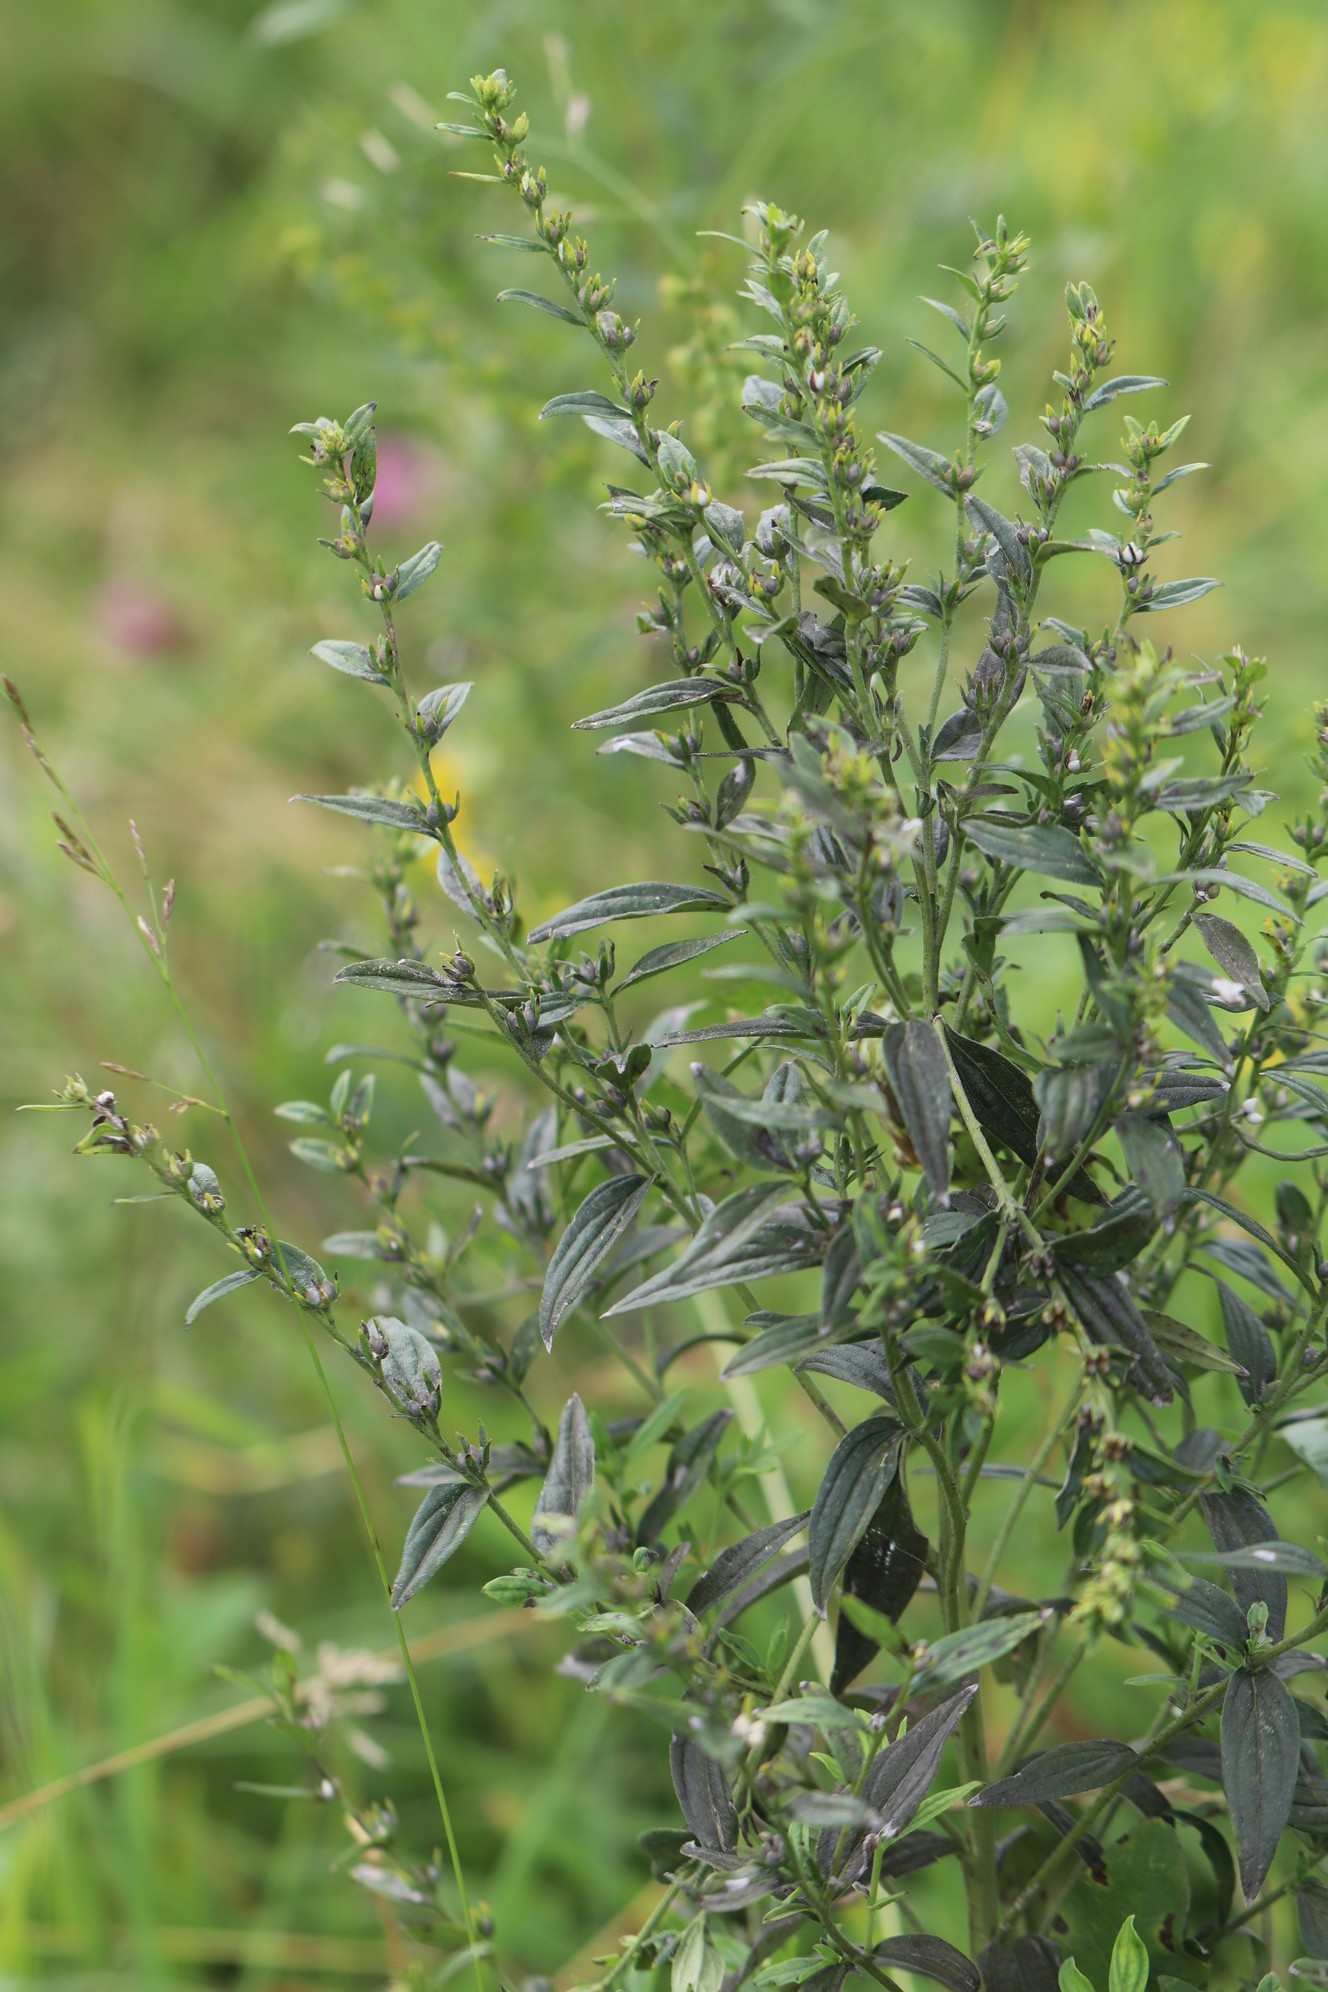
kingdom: Plantae
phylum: Tracheophyta
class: Magnoliopsida
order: Boraginales
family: Boraginaceae
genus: Lithospermum
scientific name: Lithospermum officinale
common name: Common gromwell
